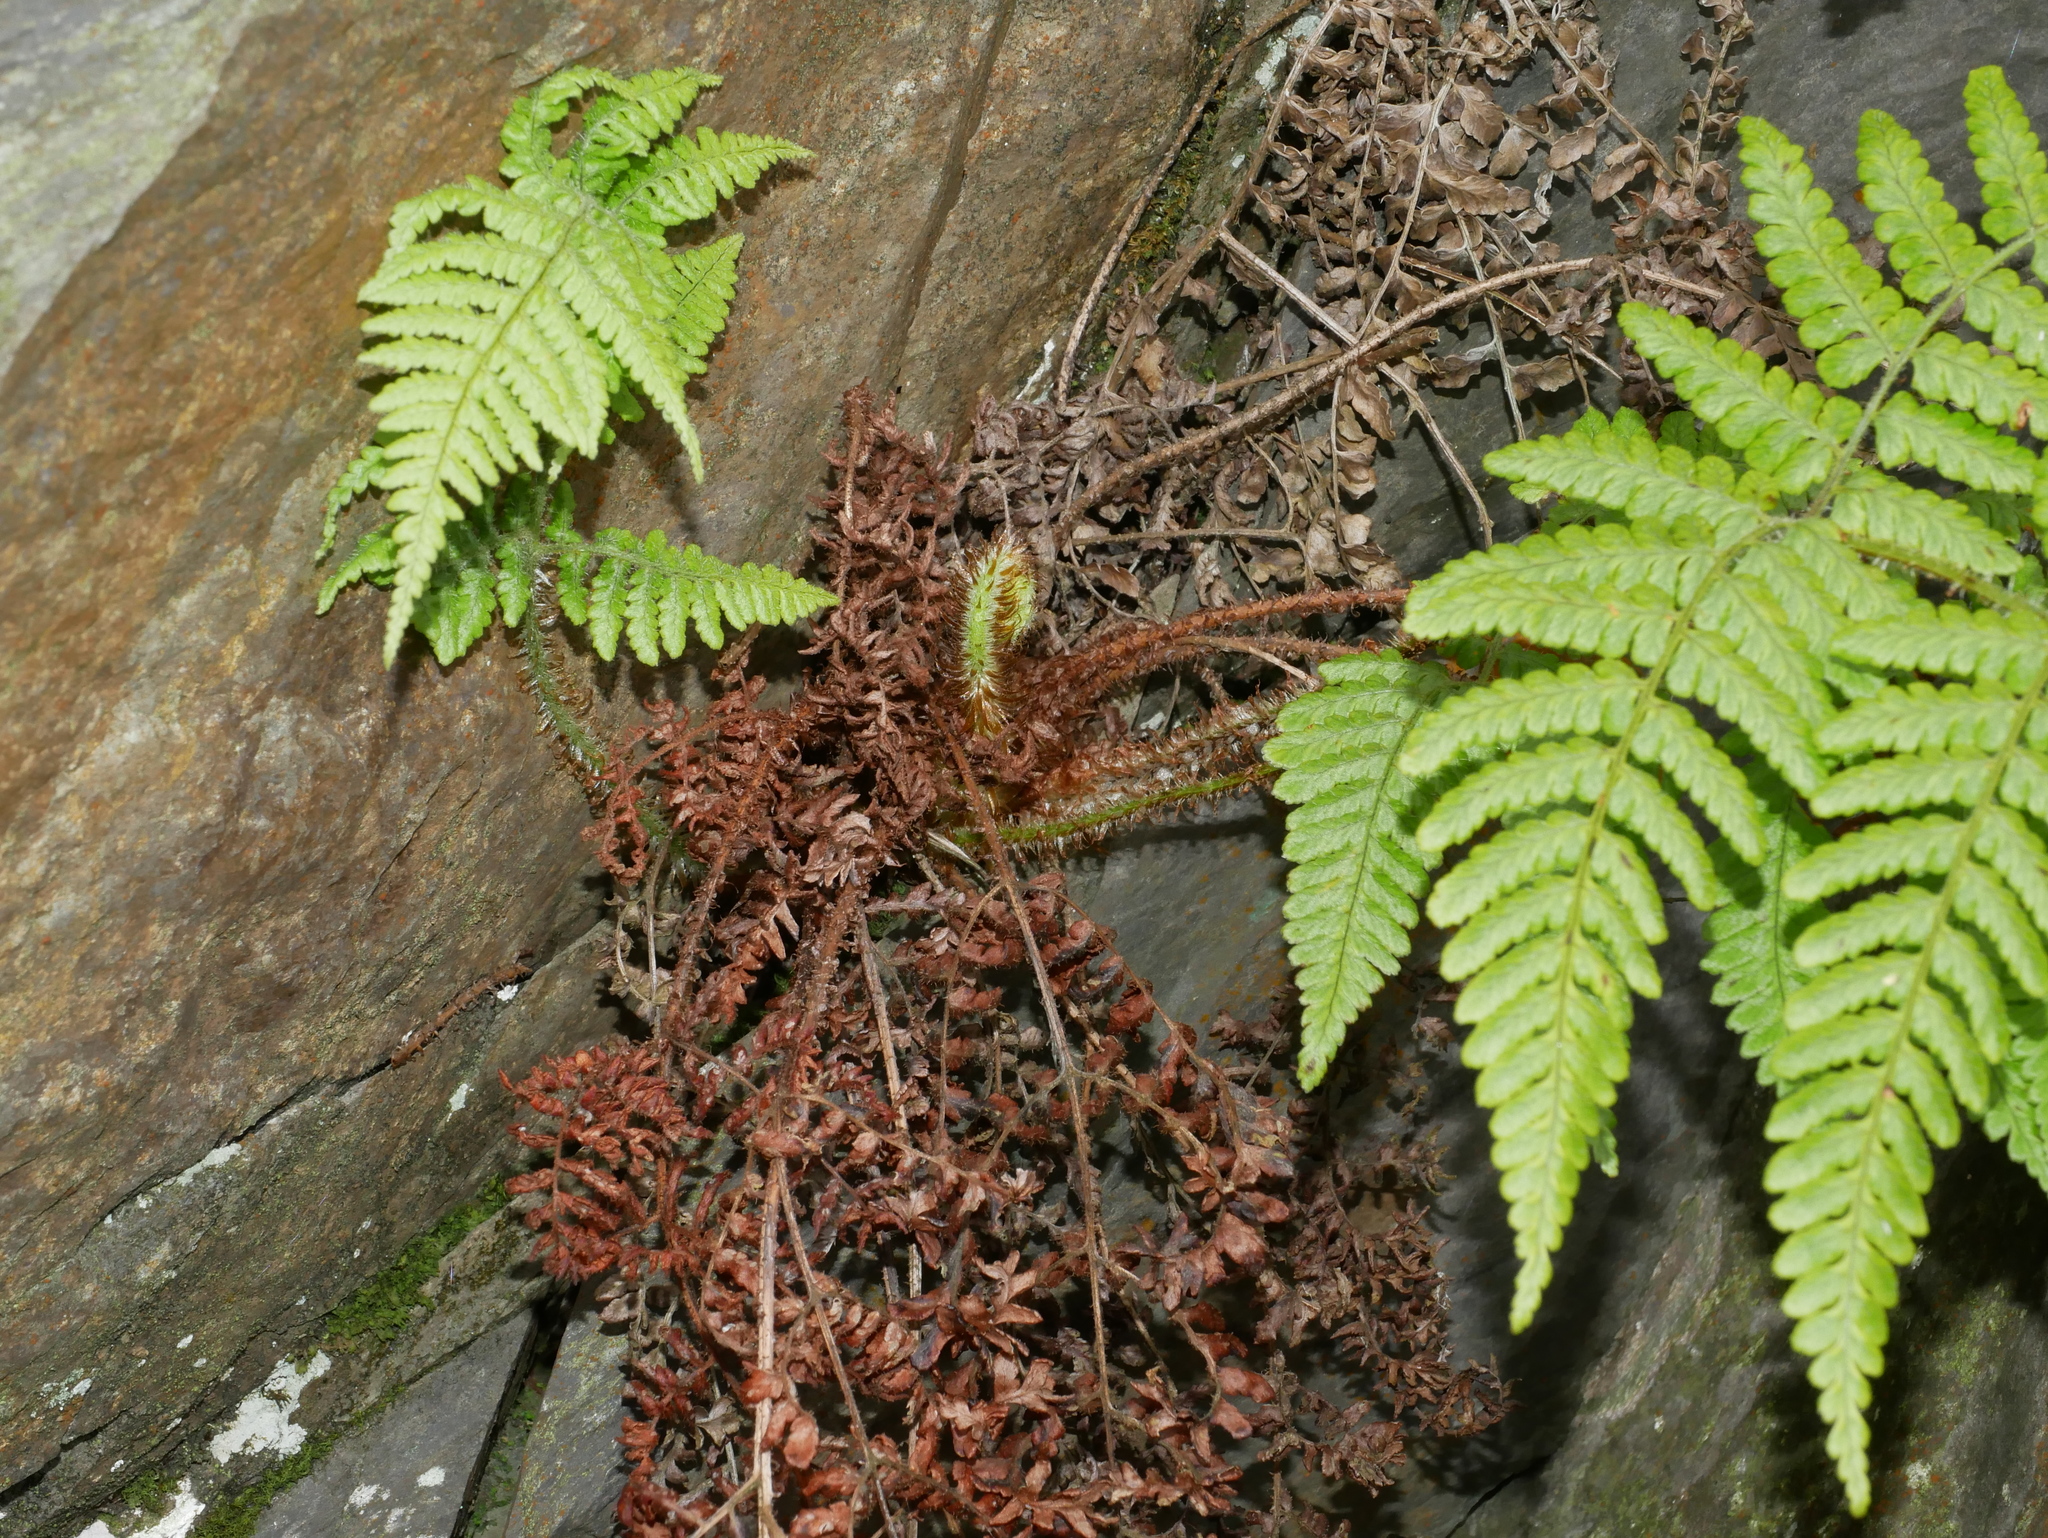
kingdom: Plantae
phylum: Tracheophyta
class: Polypodiopsida
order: Polypodiales
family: Dryopteridaceae
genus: Dryopteris
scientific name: Dryopteris peranema
